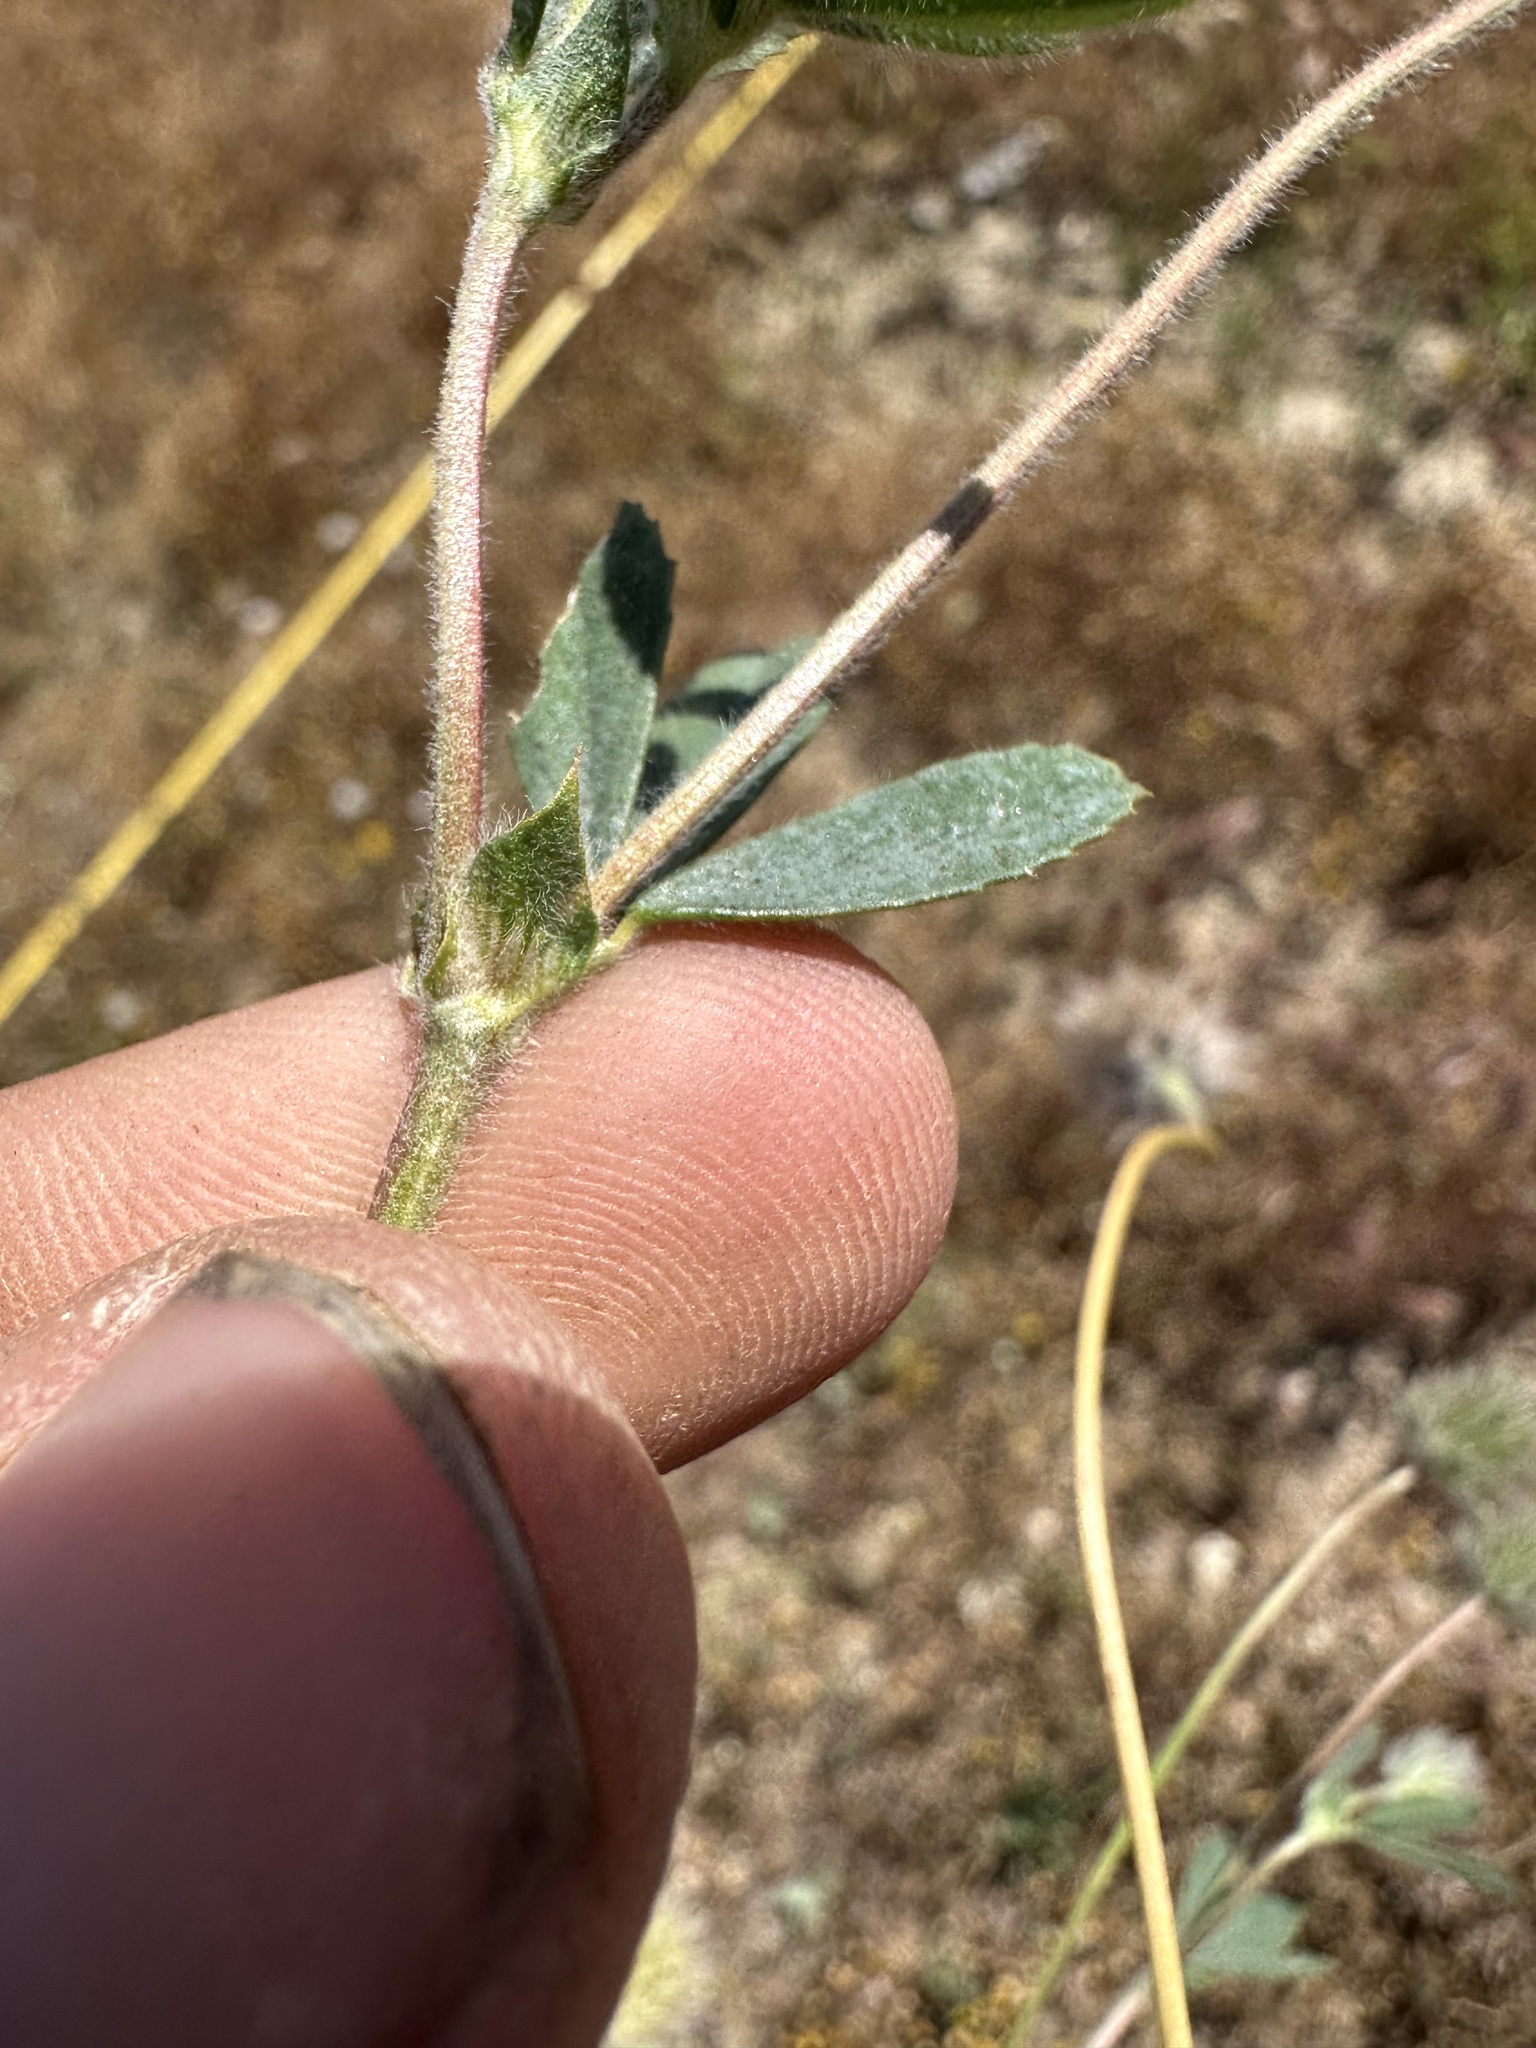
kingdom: Plantae
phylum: Tracheophyta
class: Magnoliopsida
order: Fabales
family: Fabaceae
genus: Trifolium
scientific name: Trifolium olivaceum
